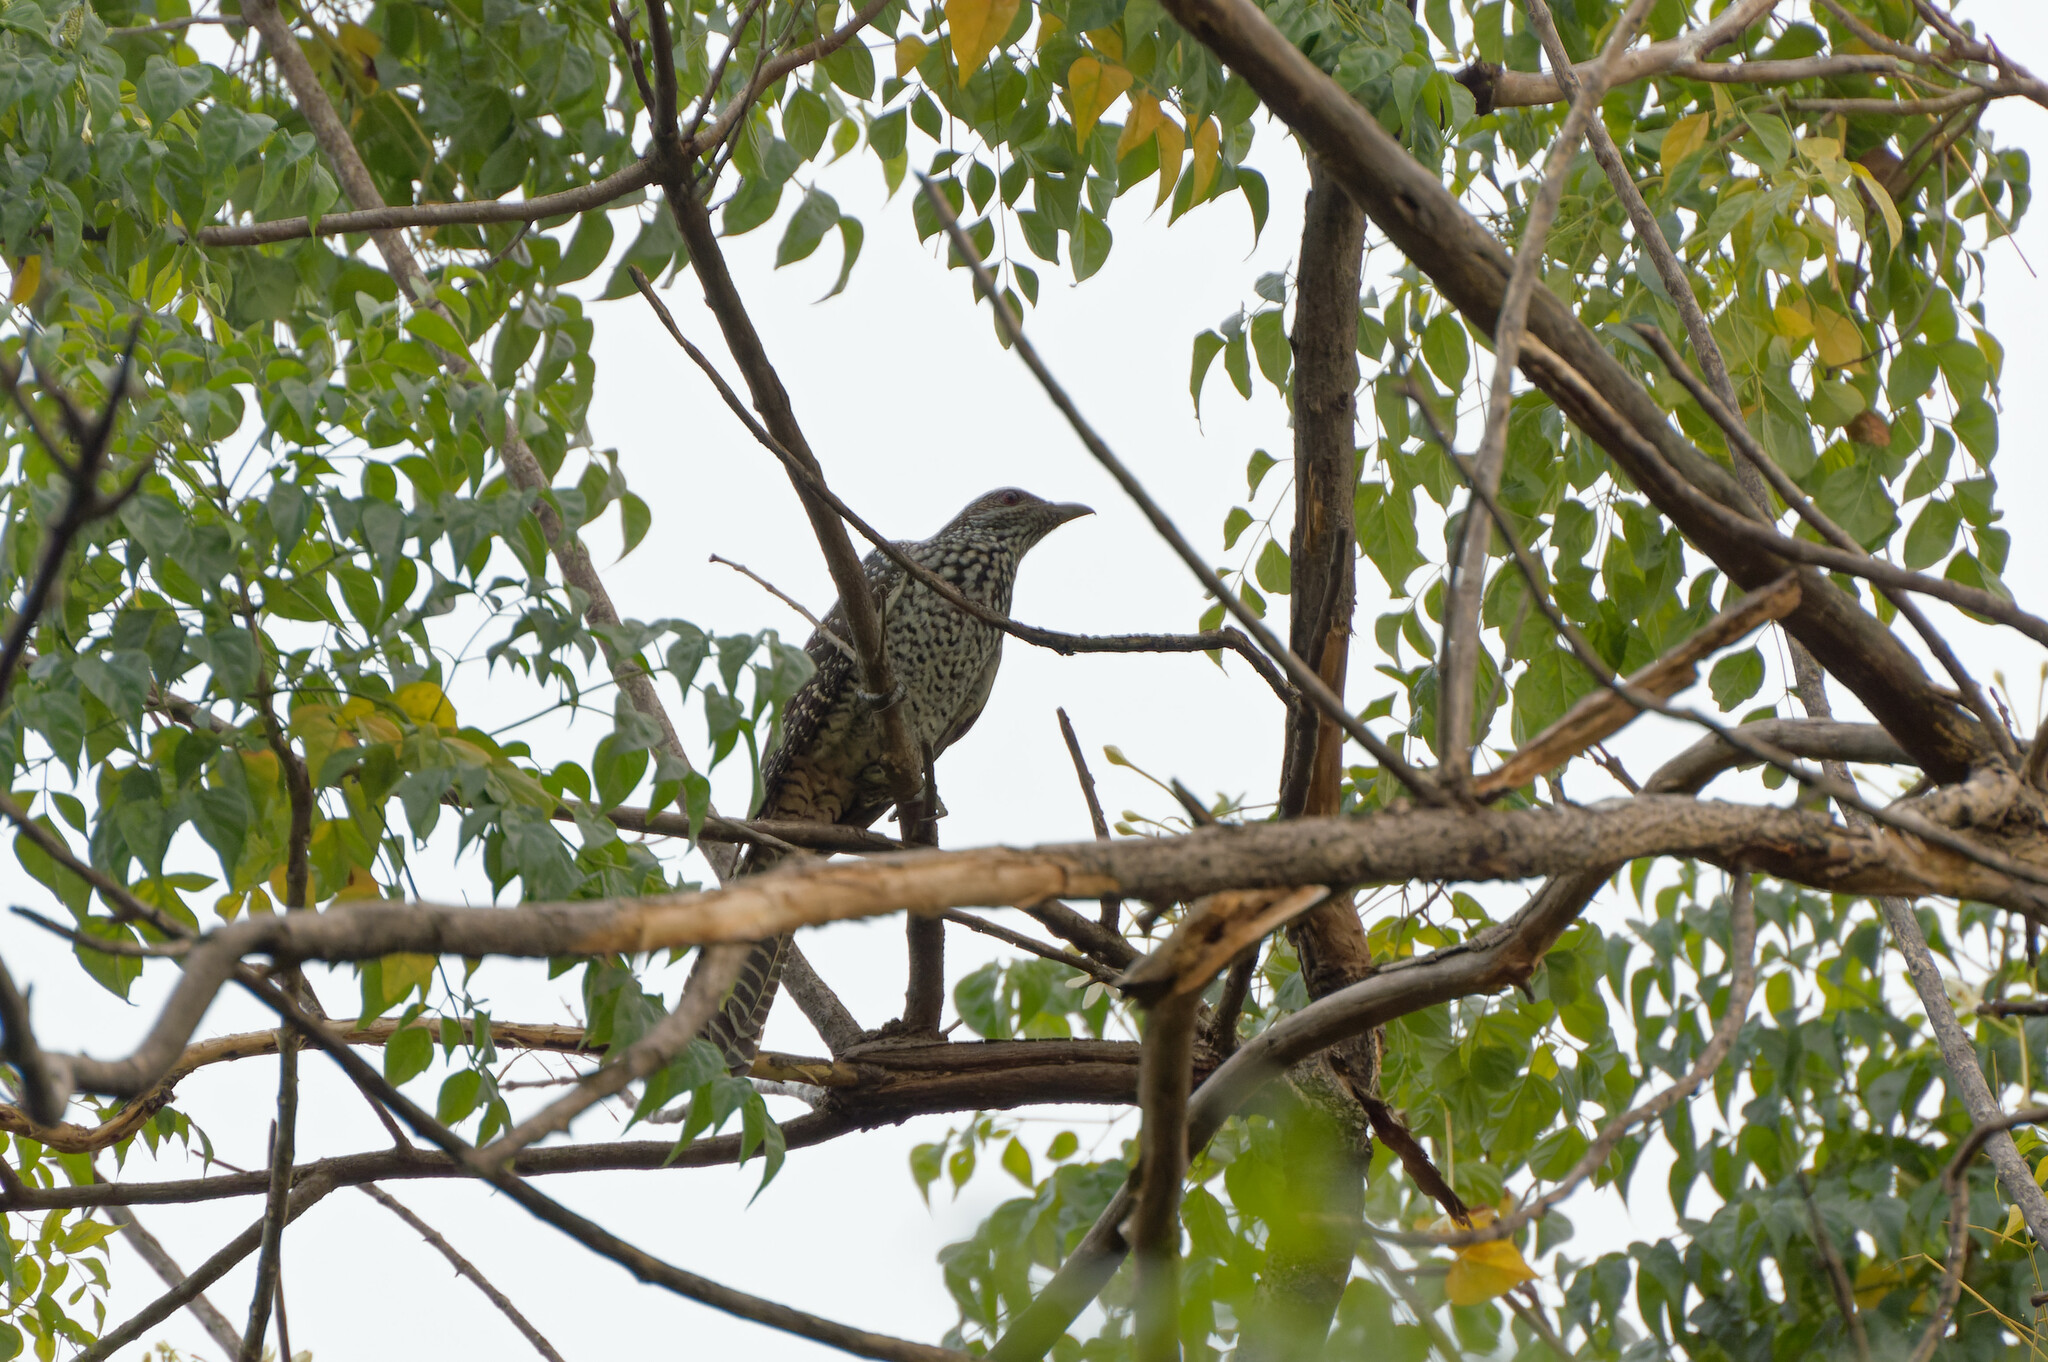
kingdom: Animalia
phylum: Chordata
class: Aves
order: Cuculiformes
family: Cuculidae
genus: Eudynamys
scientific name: Eudynamys scolopaceus
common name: Asian koel
